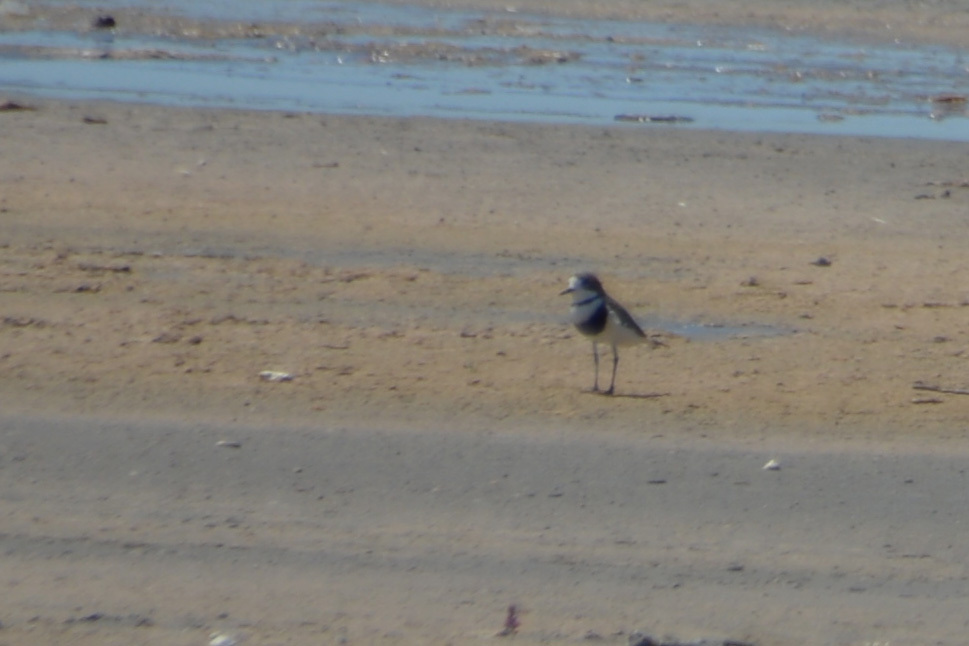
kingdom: Animalia
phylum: Chordata
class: Aves
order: Charadriiformes
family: Charadriidae
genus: Anarhynchus
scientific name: Anarhynchus
